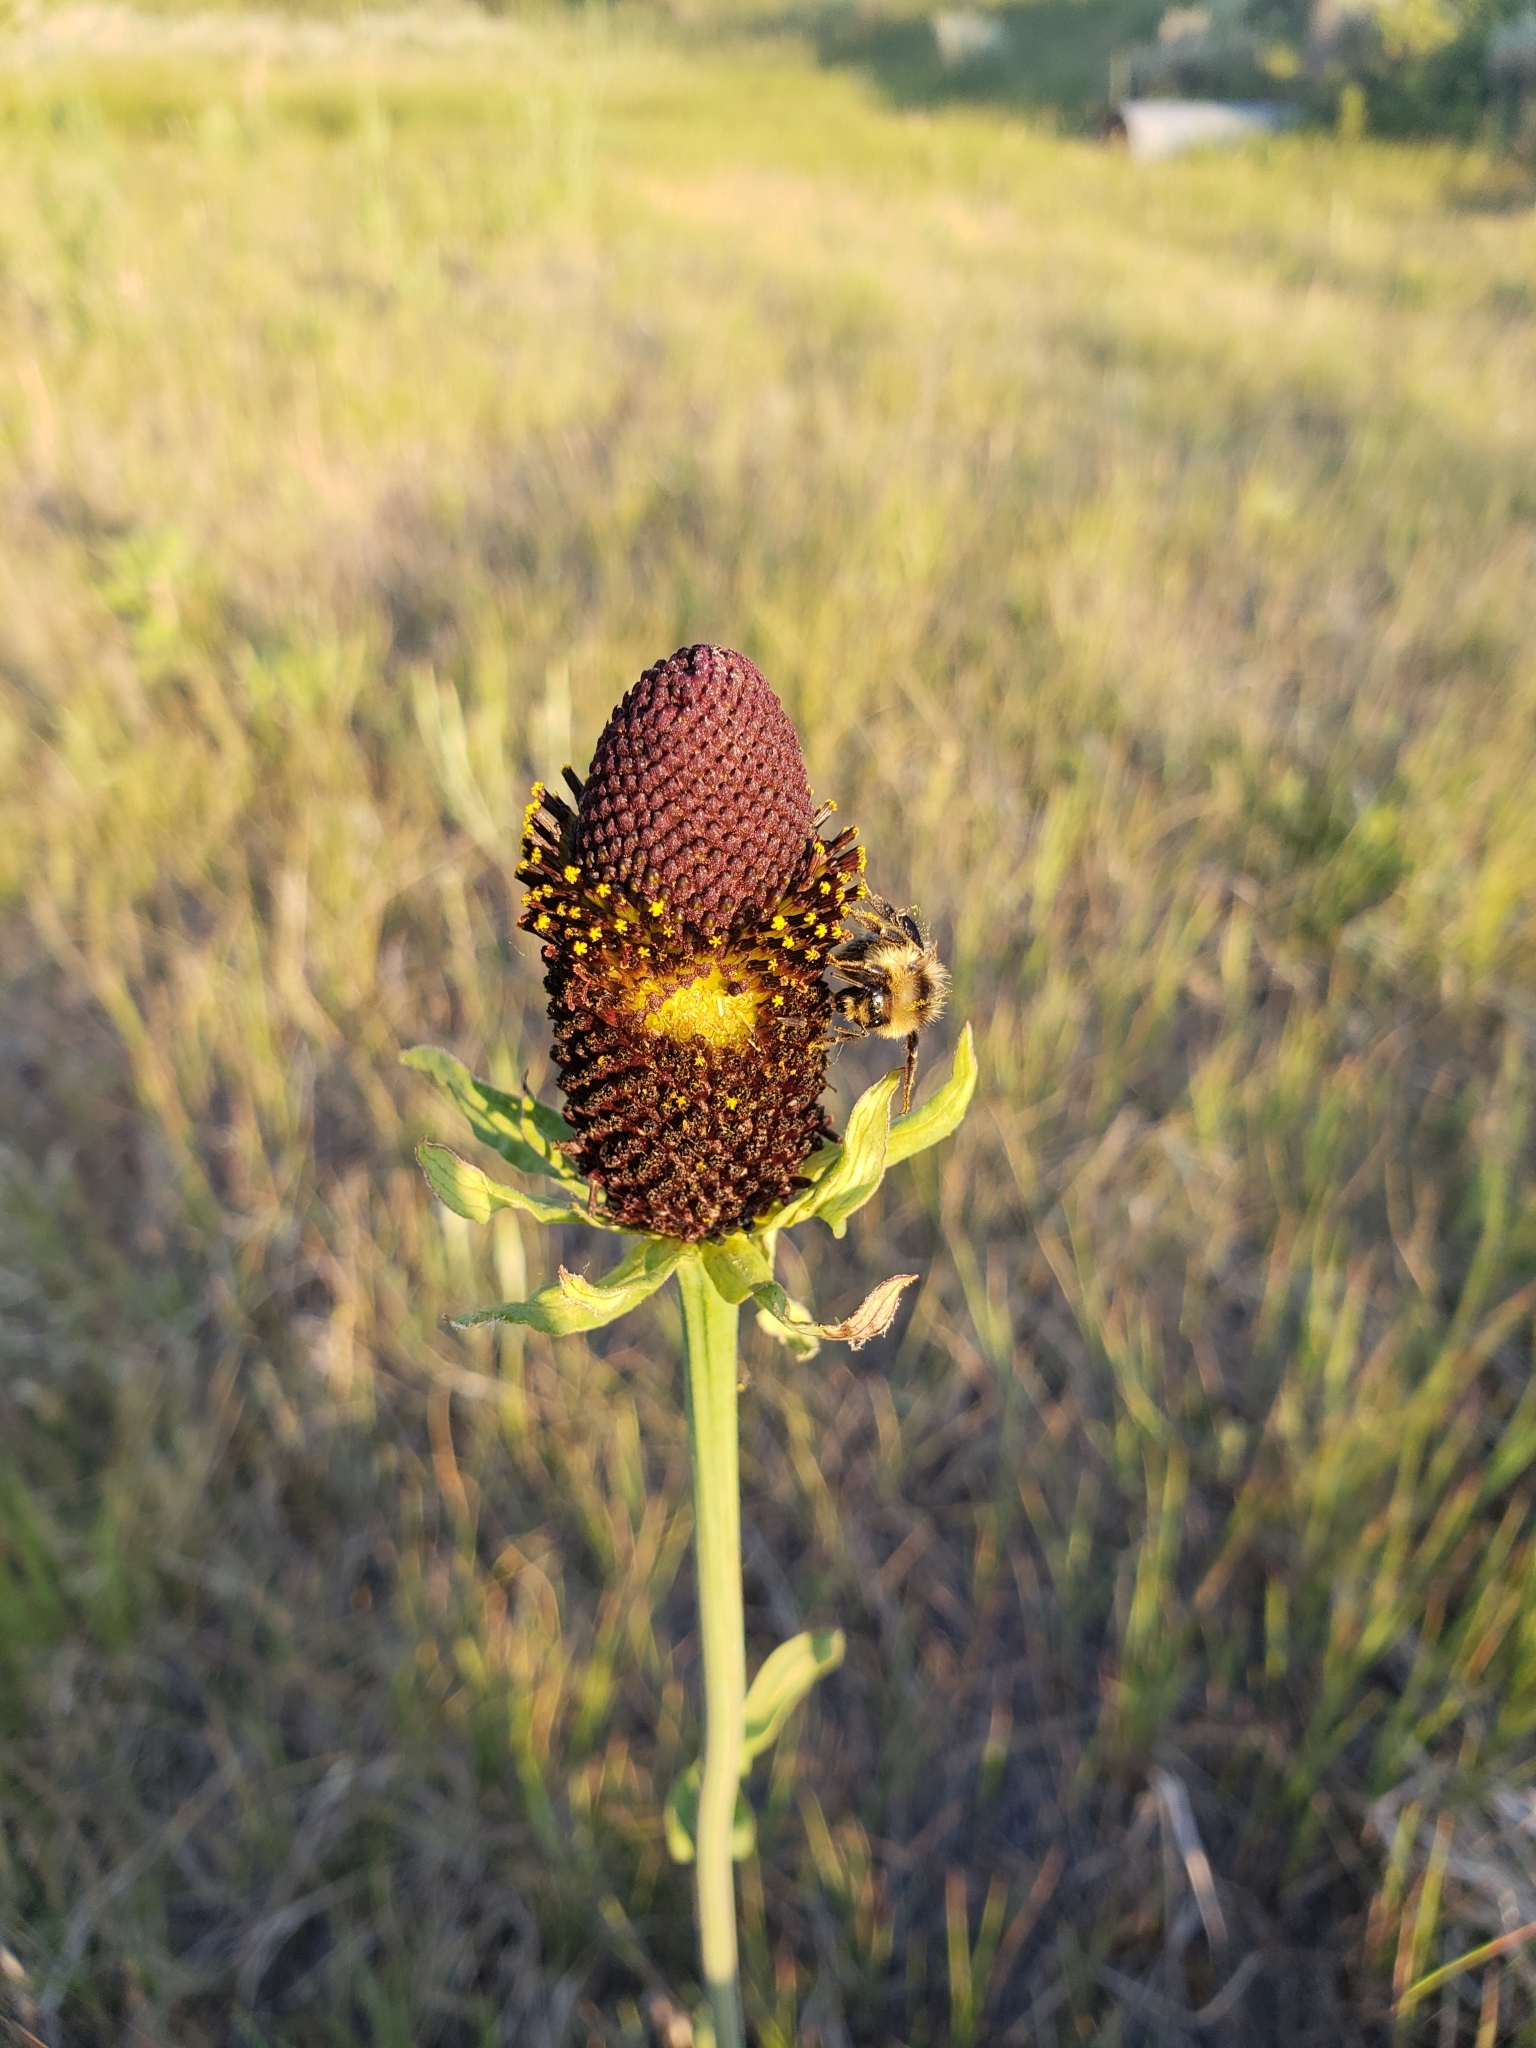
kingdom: Animalia
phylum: Arthropoda
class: Insecta
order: Hymenoptera
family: Apidae
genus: Pyrobombus
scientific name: Pyrobombus
